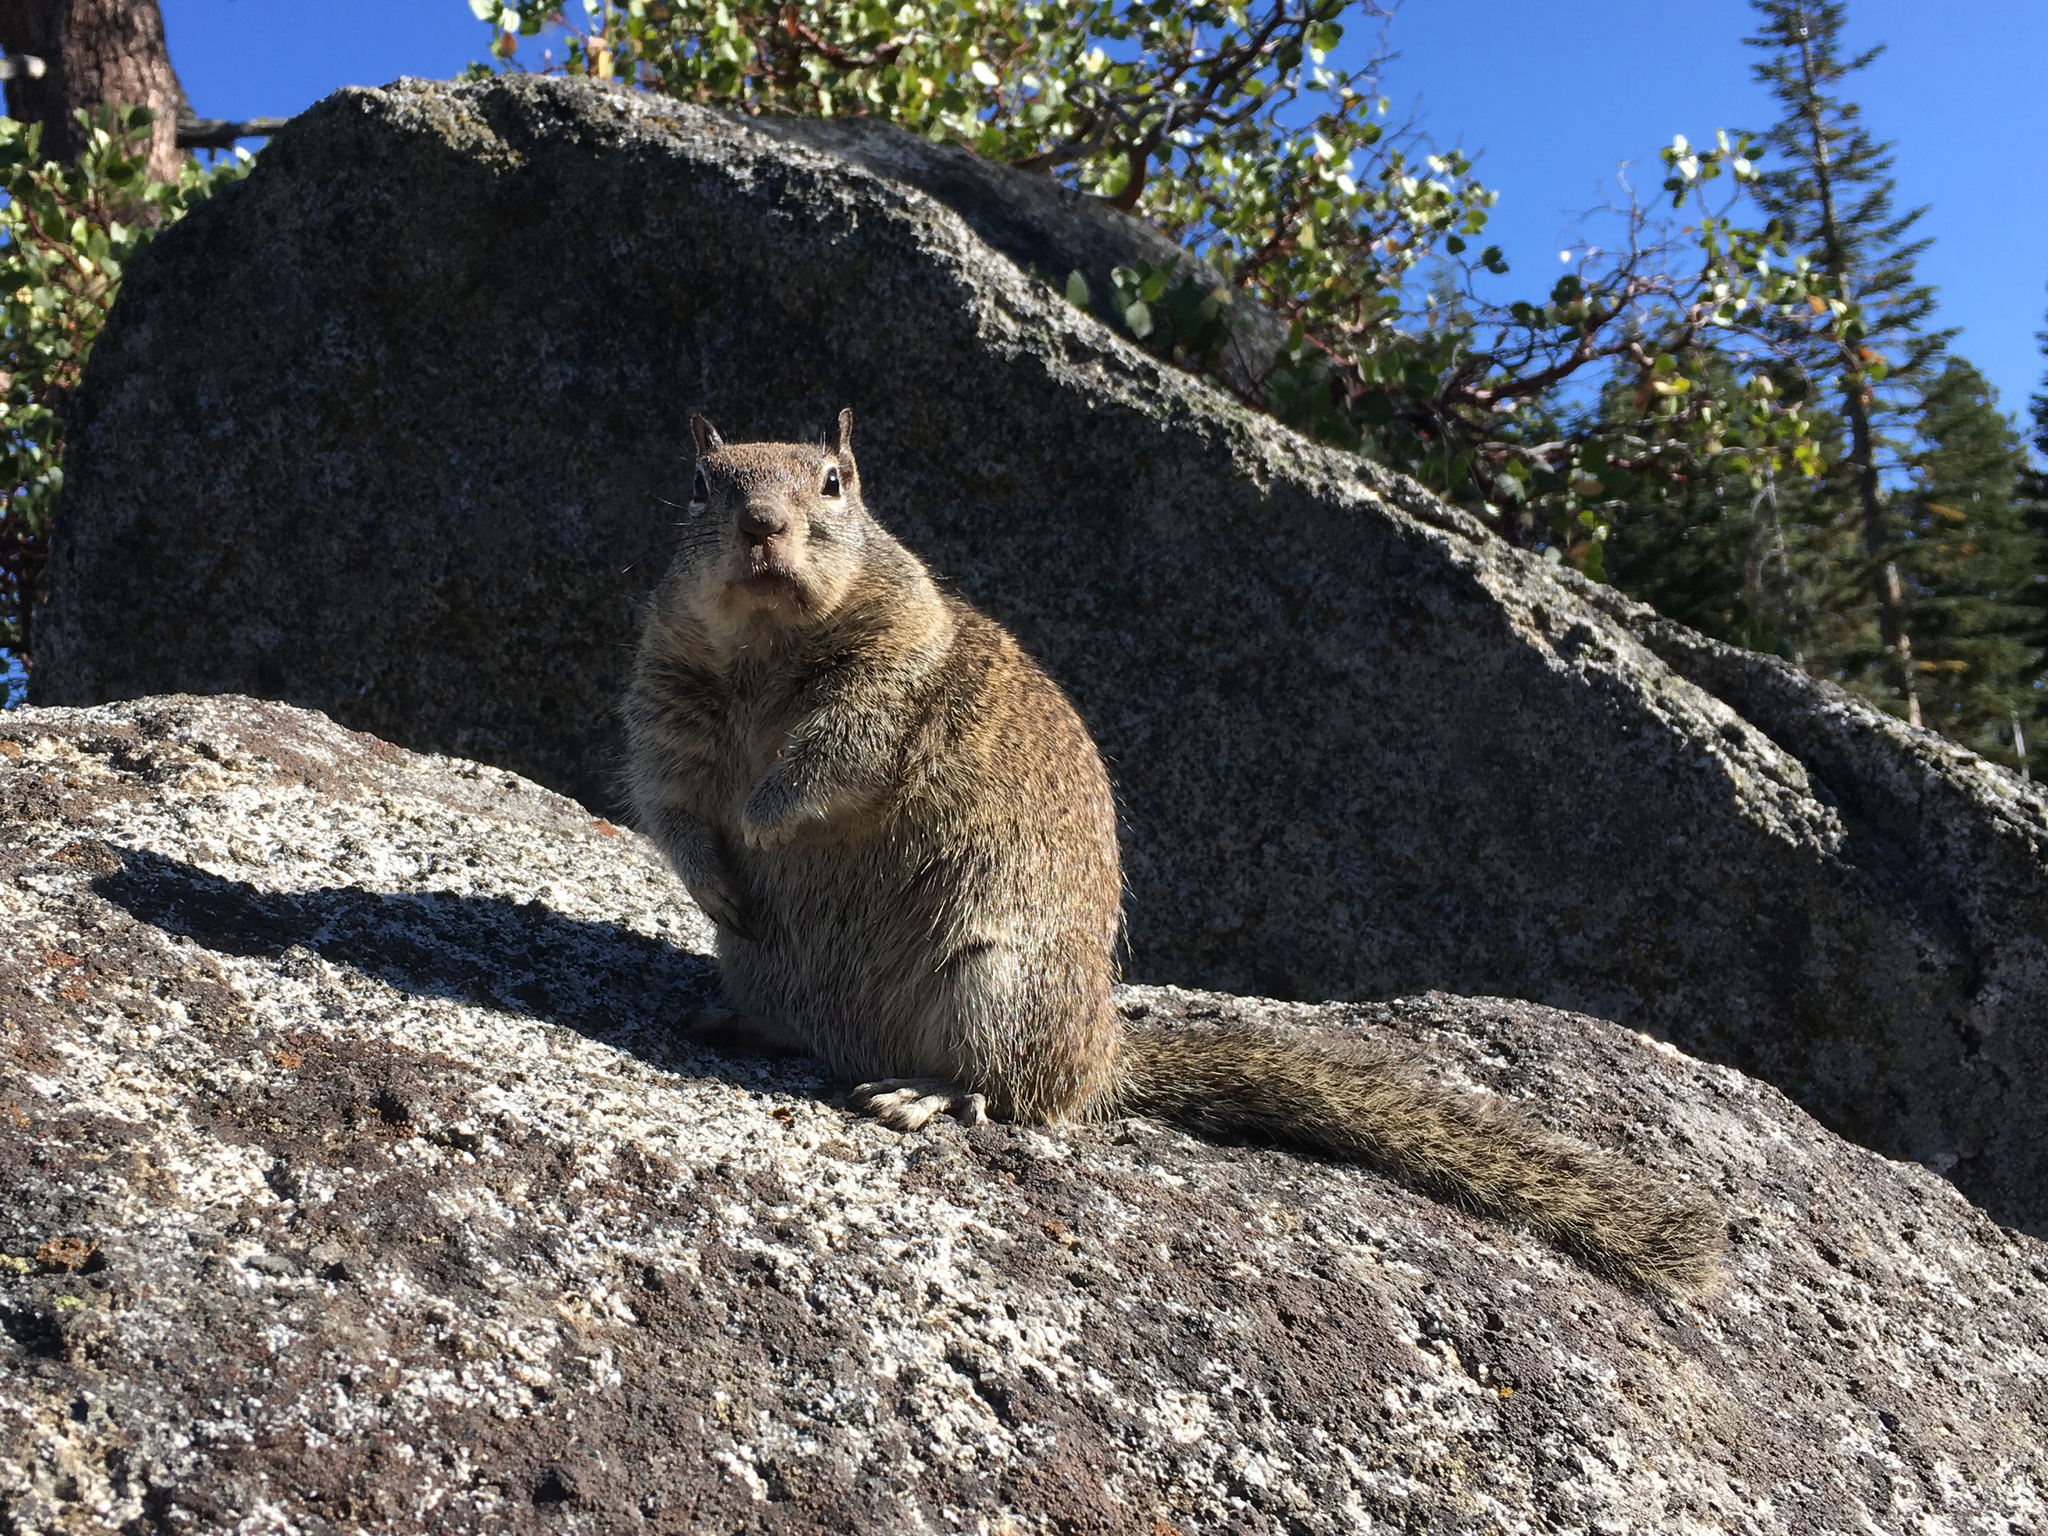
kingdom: Animalia
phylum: Chordata
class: Mammalia
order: Rodentia
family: Sciuridae
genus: Otospermophilus
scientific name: Otospermophilus beecheyi
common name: California ground squirrel
